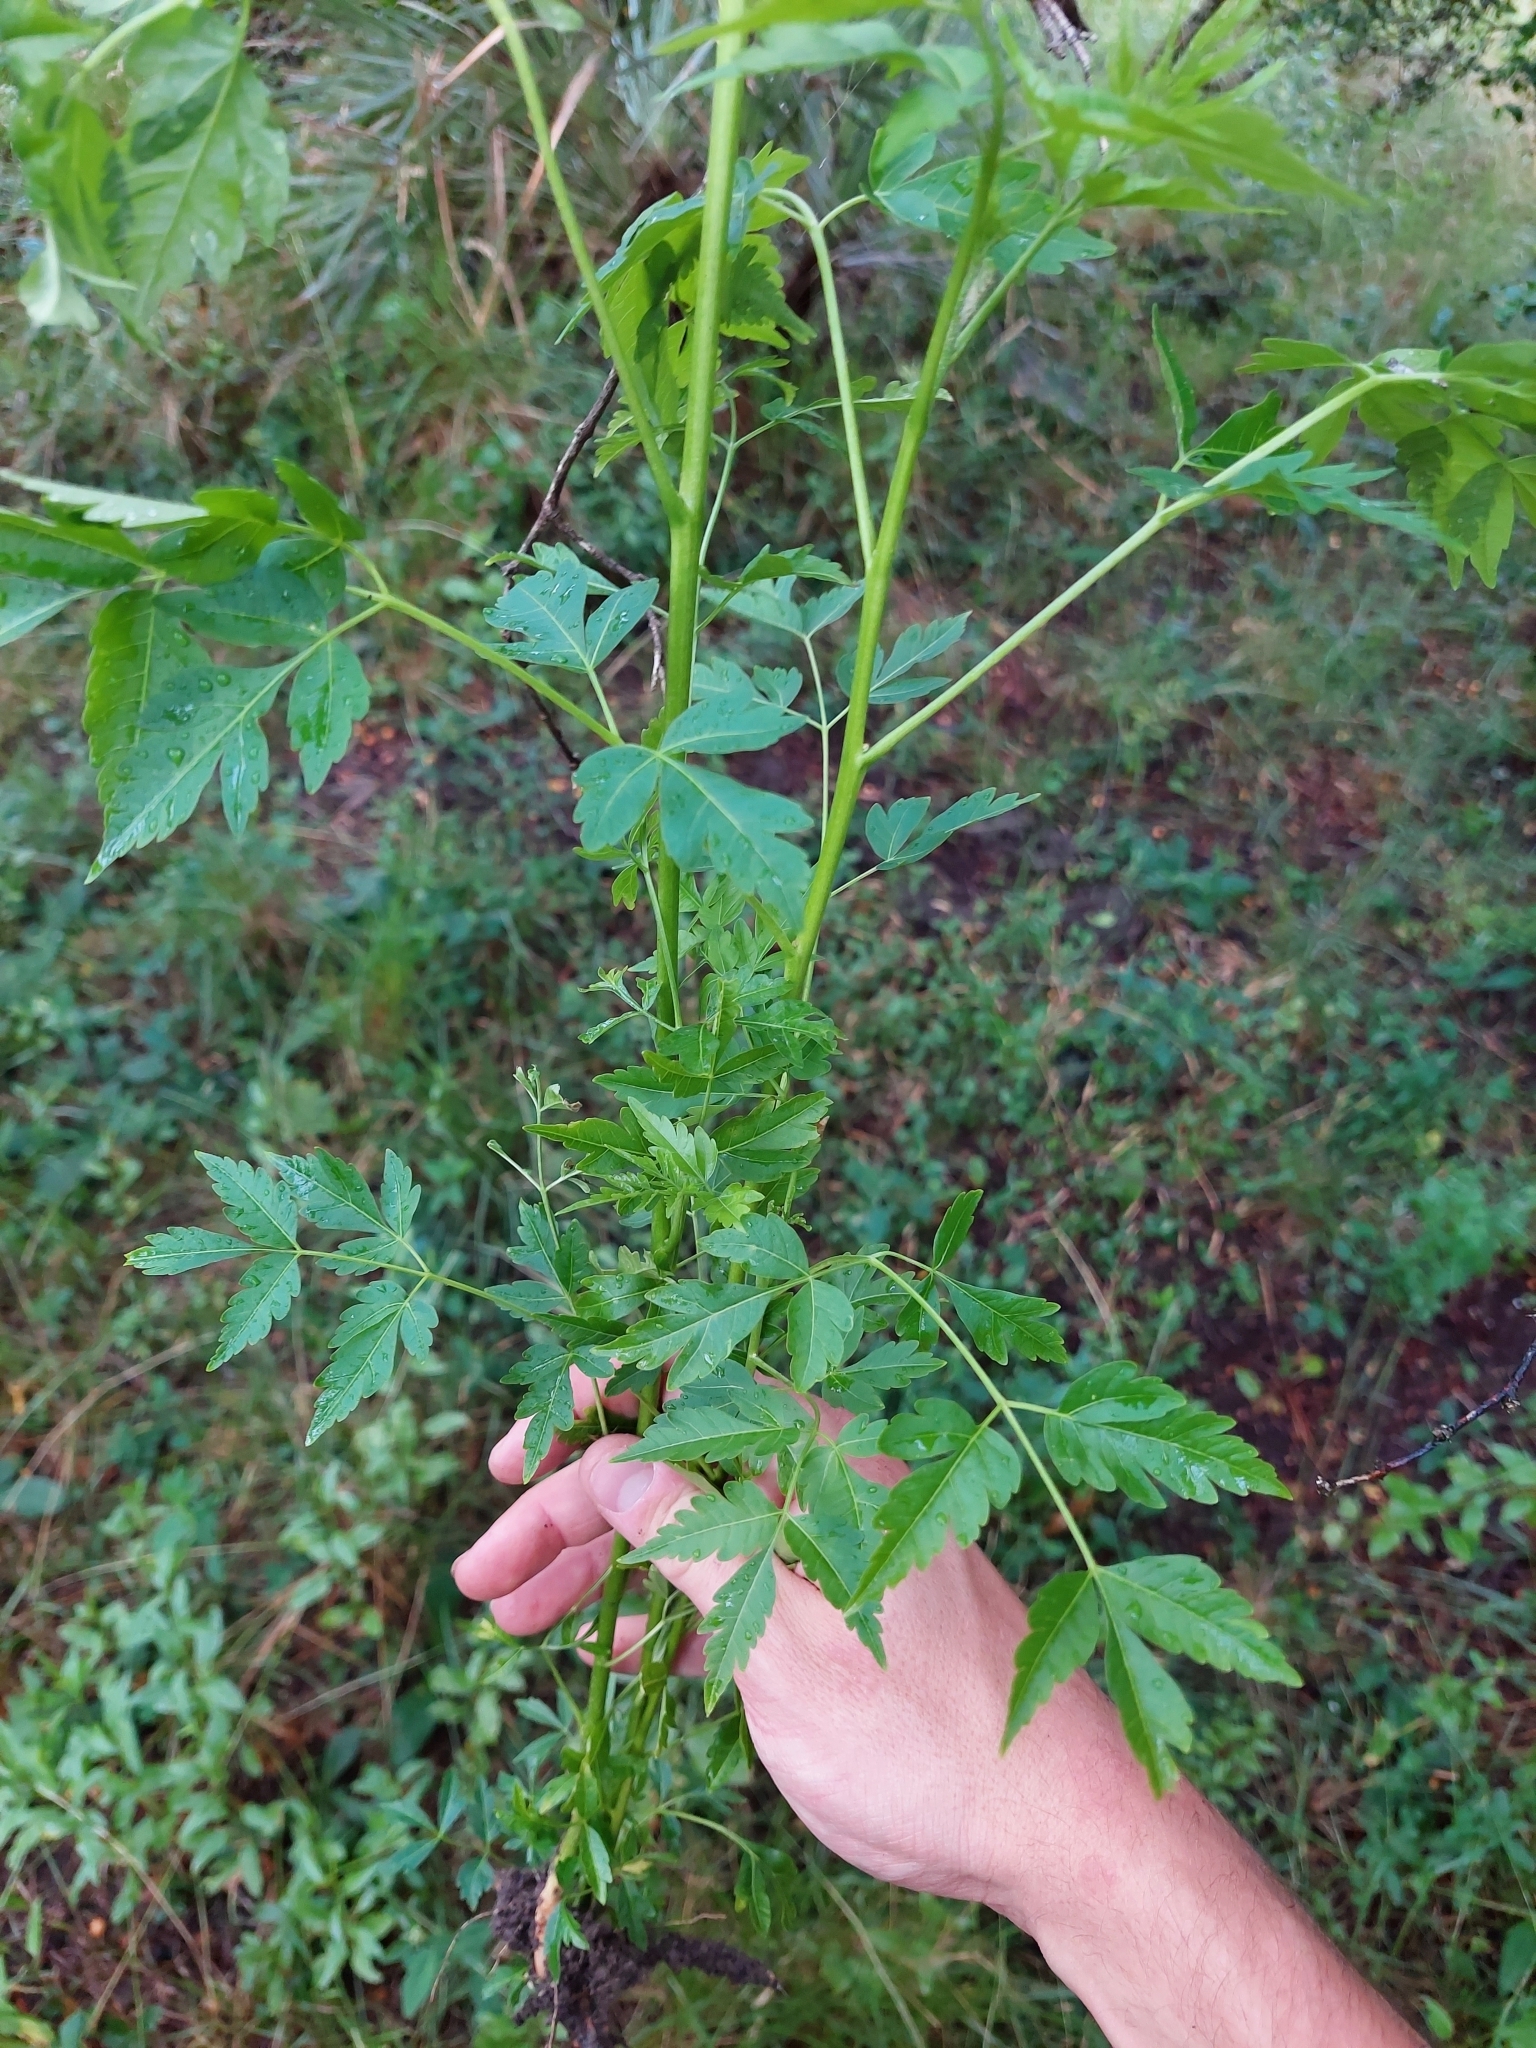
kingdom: Plantae
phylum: Tracheophyta
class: Magnoliopsida
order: Sapindales
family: Meliaceae
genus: Melia
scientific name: Melia azedarach
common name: Chinaberrytree
